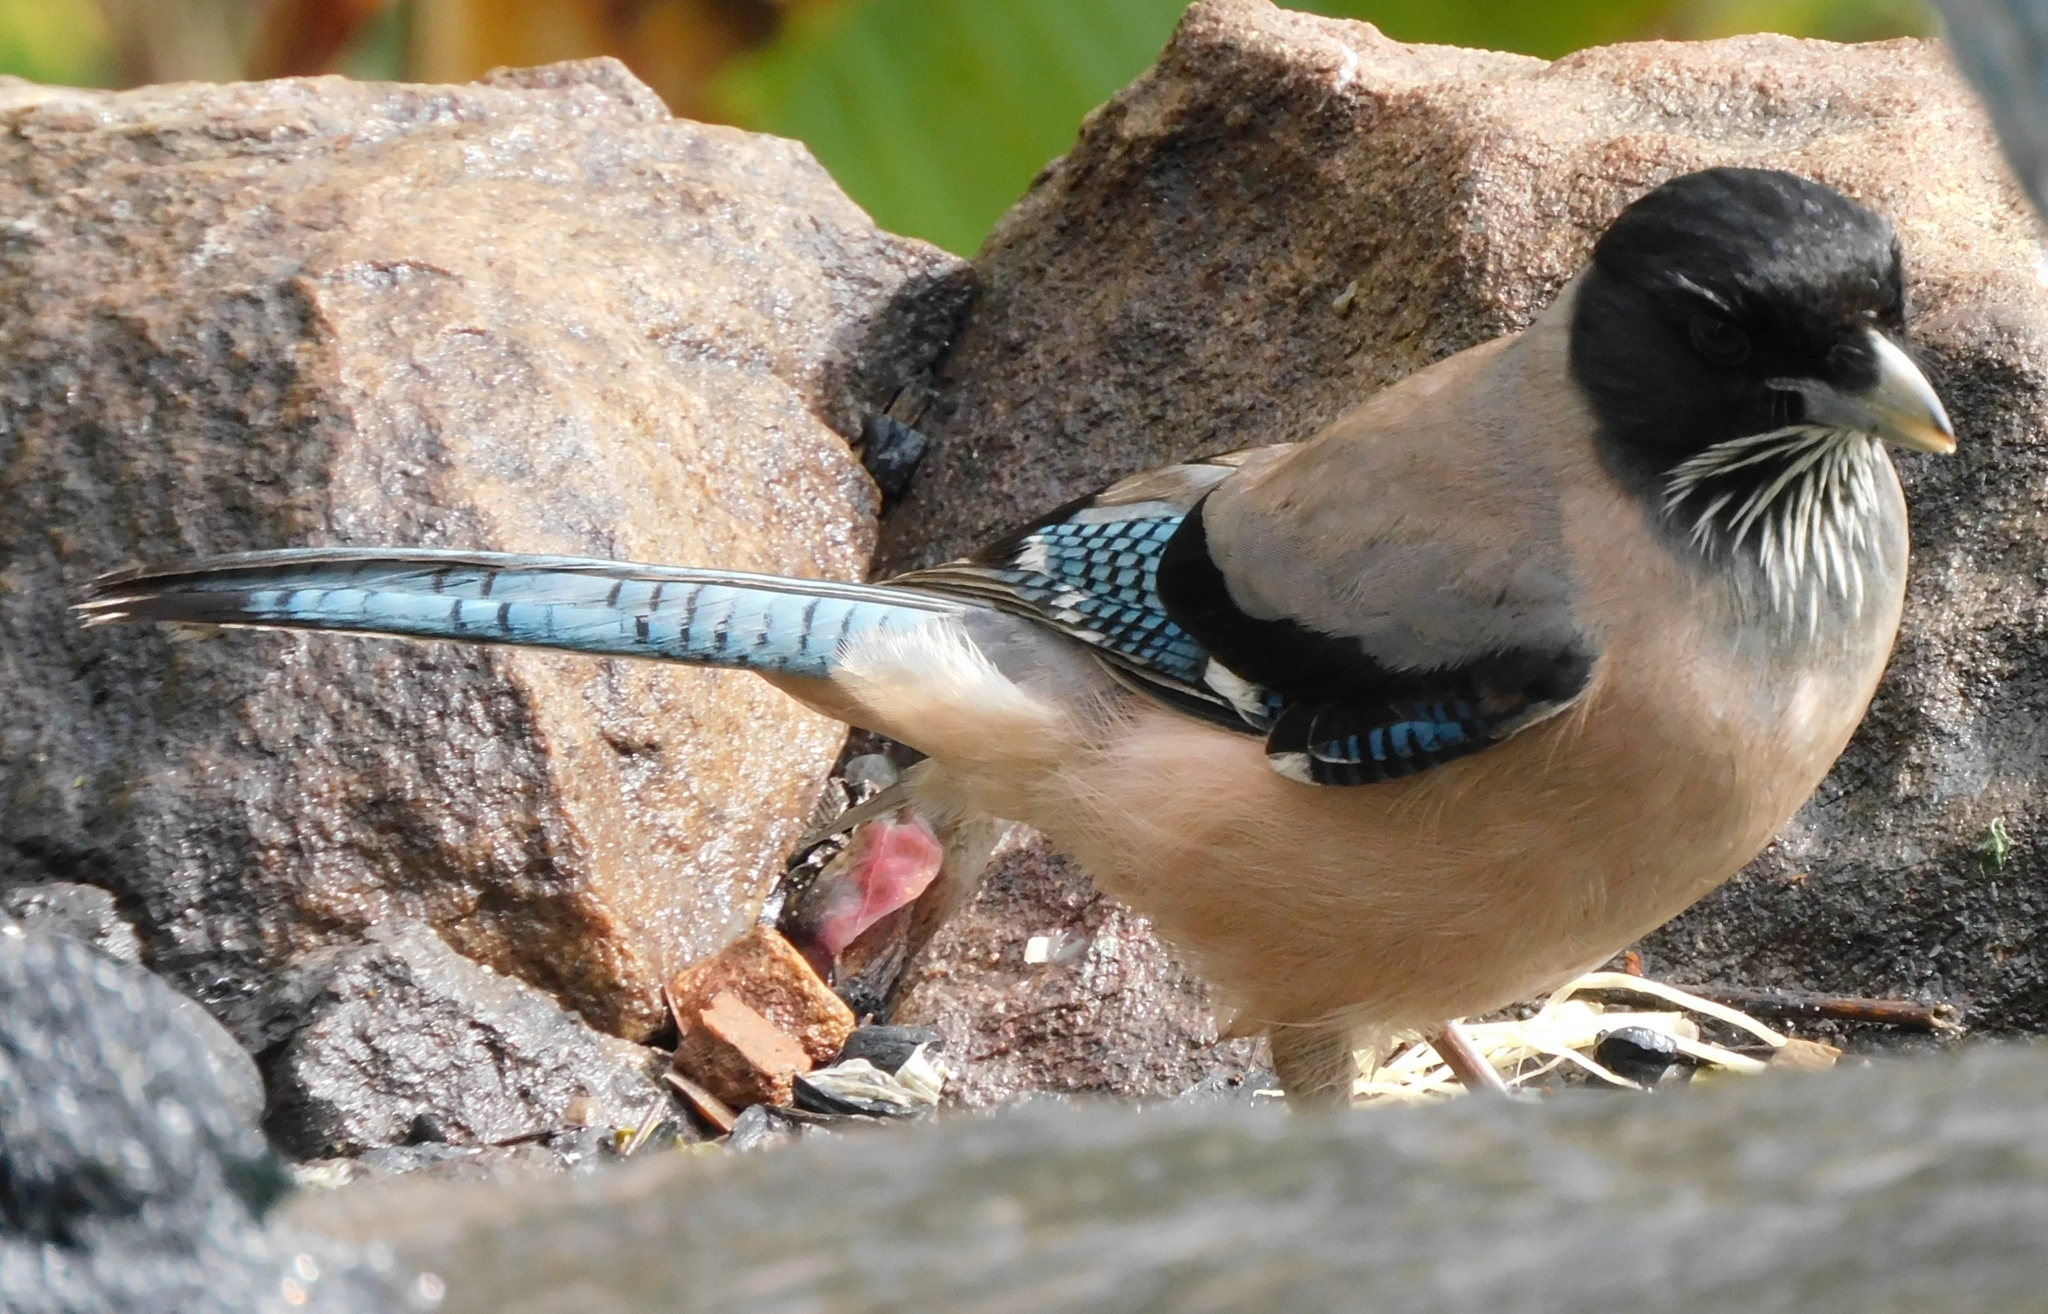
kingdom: Animalia
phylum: Chordata
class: Aves
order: Passeriformes
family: Corvidae
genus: Garrulus
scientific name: Garrulus lanceolatus
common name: Black-headed jay
